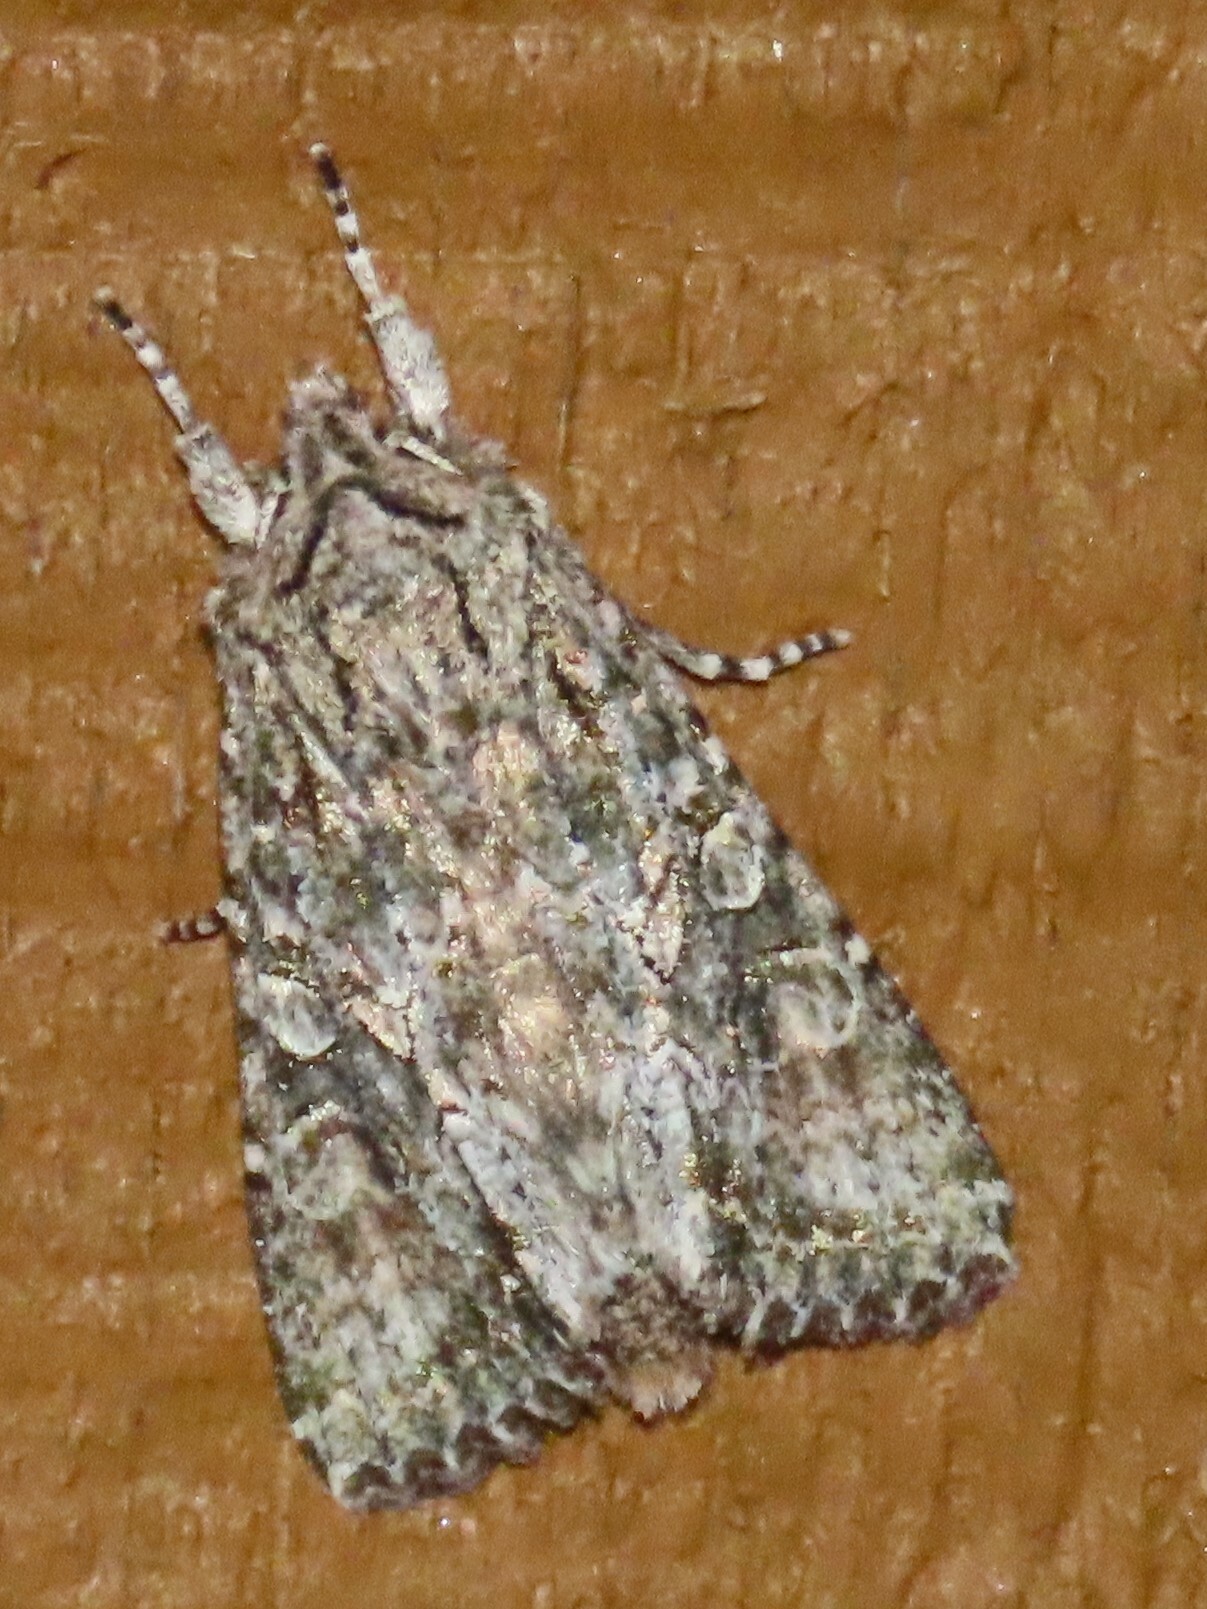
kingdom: Animalia
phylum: Arthropoda
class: Insecta
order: Lepidoptera
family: Noctuidae
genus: Ichneutica
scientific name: Ichneutica mutans
